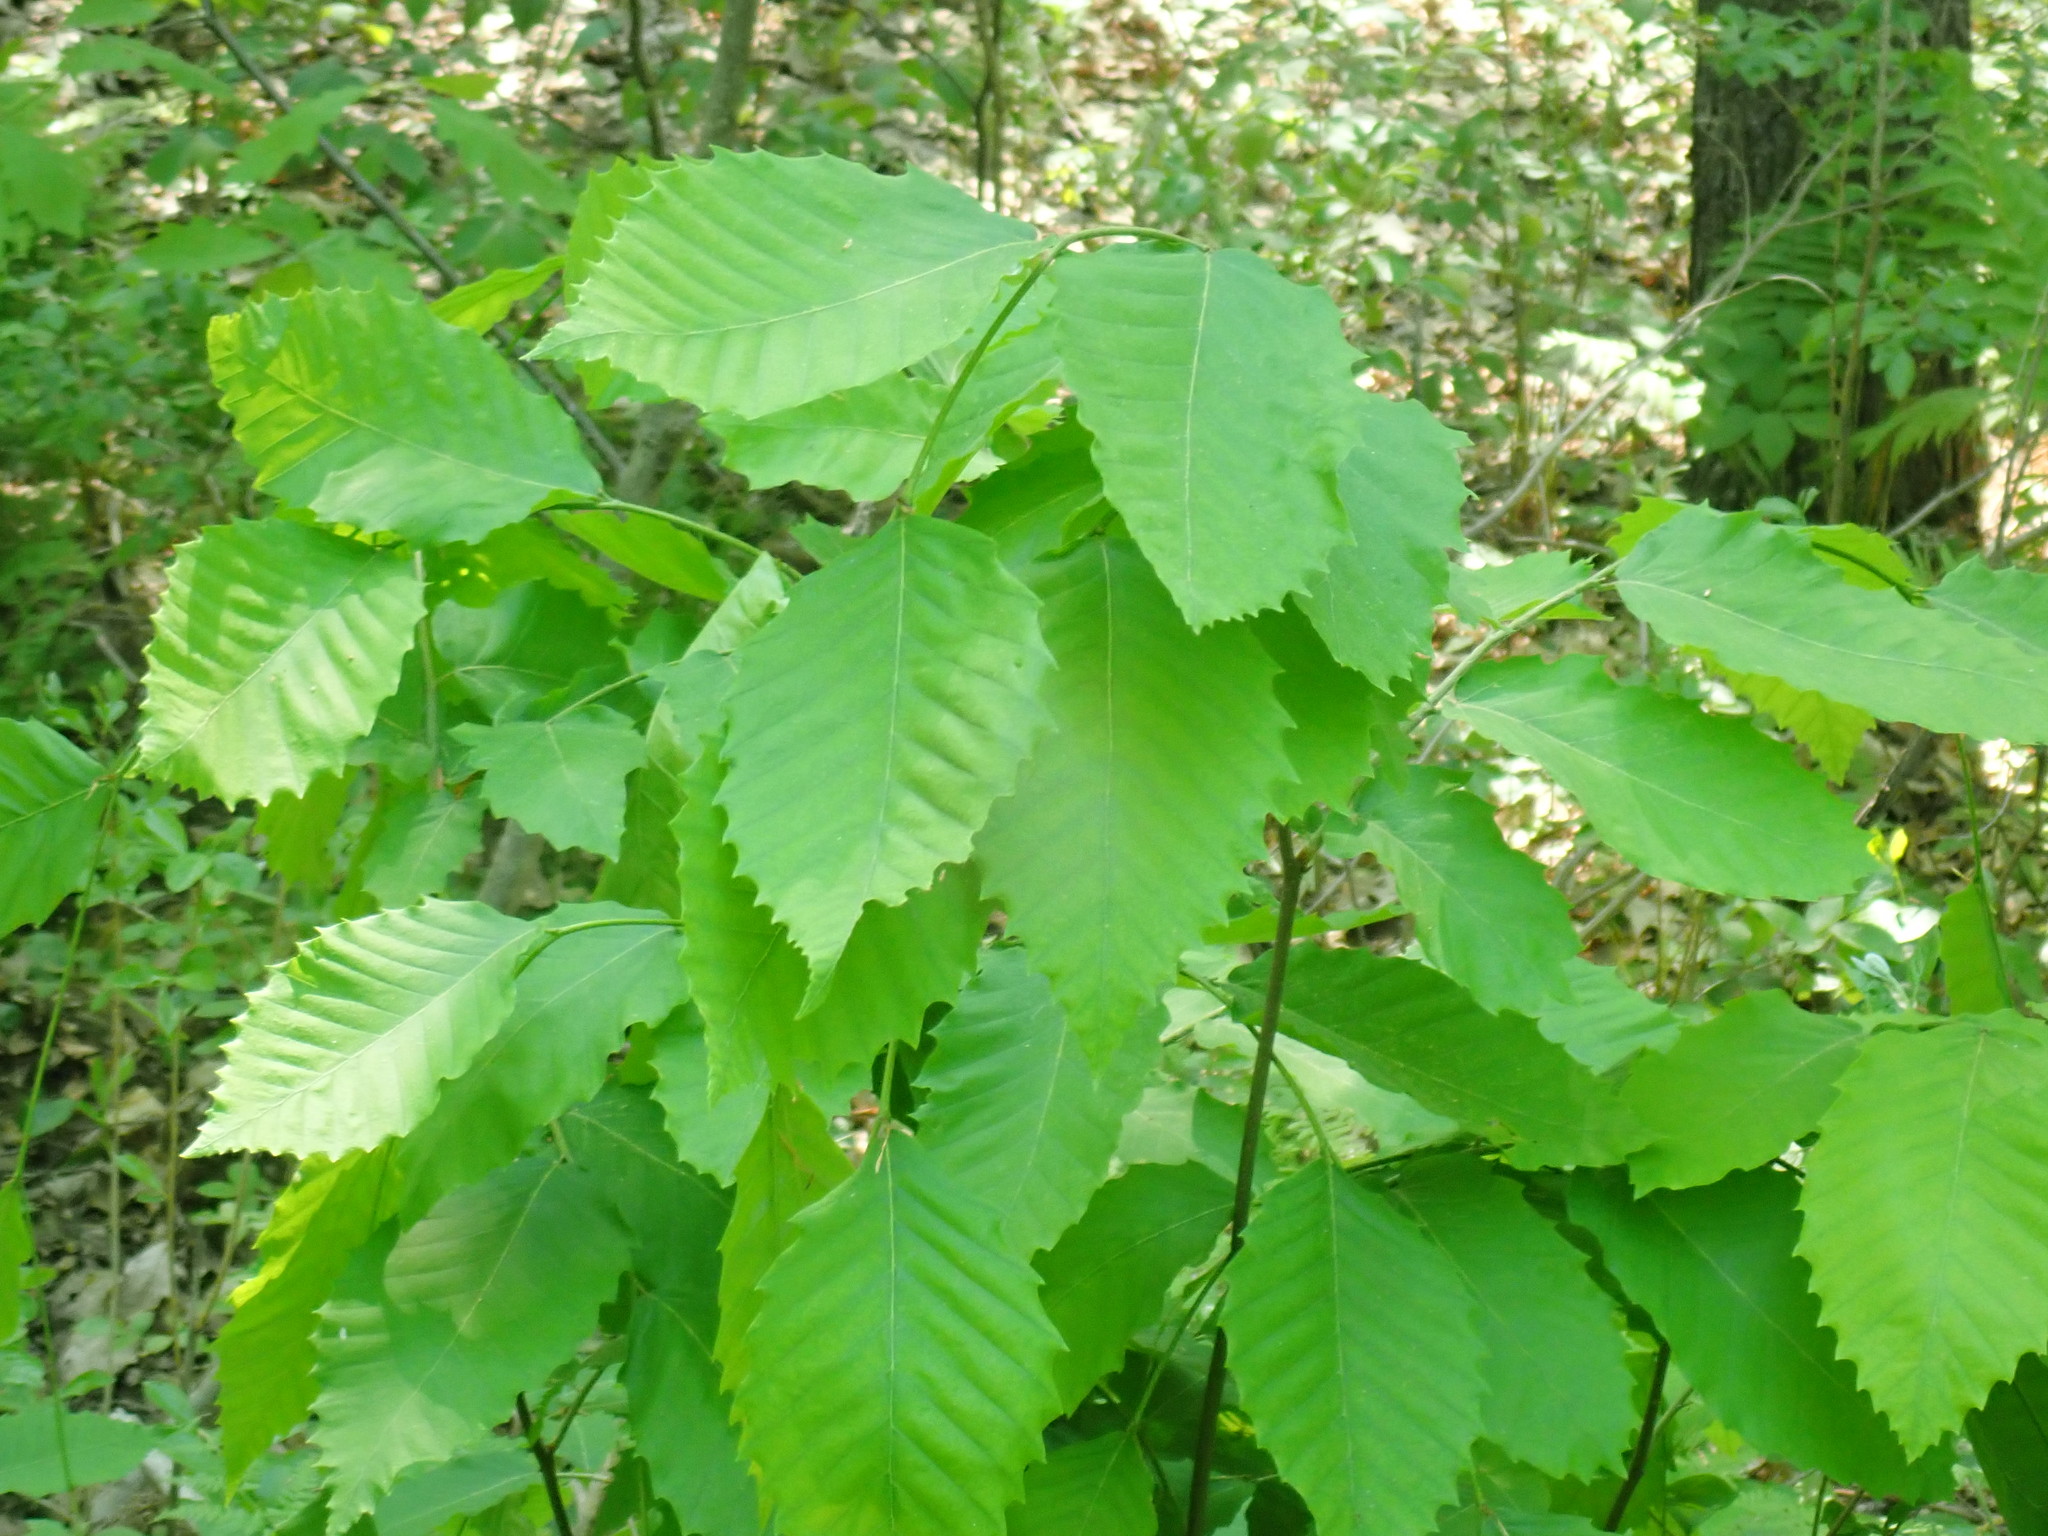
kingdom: Plantae
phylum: Tracheophyta
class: Magnoliopsida
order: Fagales
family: Fagaceae
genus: Castanea
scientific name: Castanea dentata
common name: American chestnut
